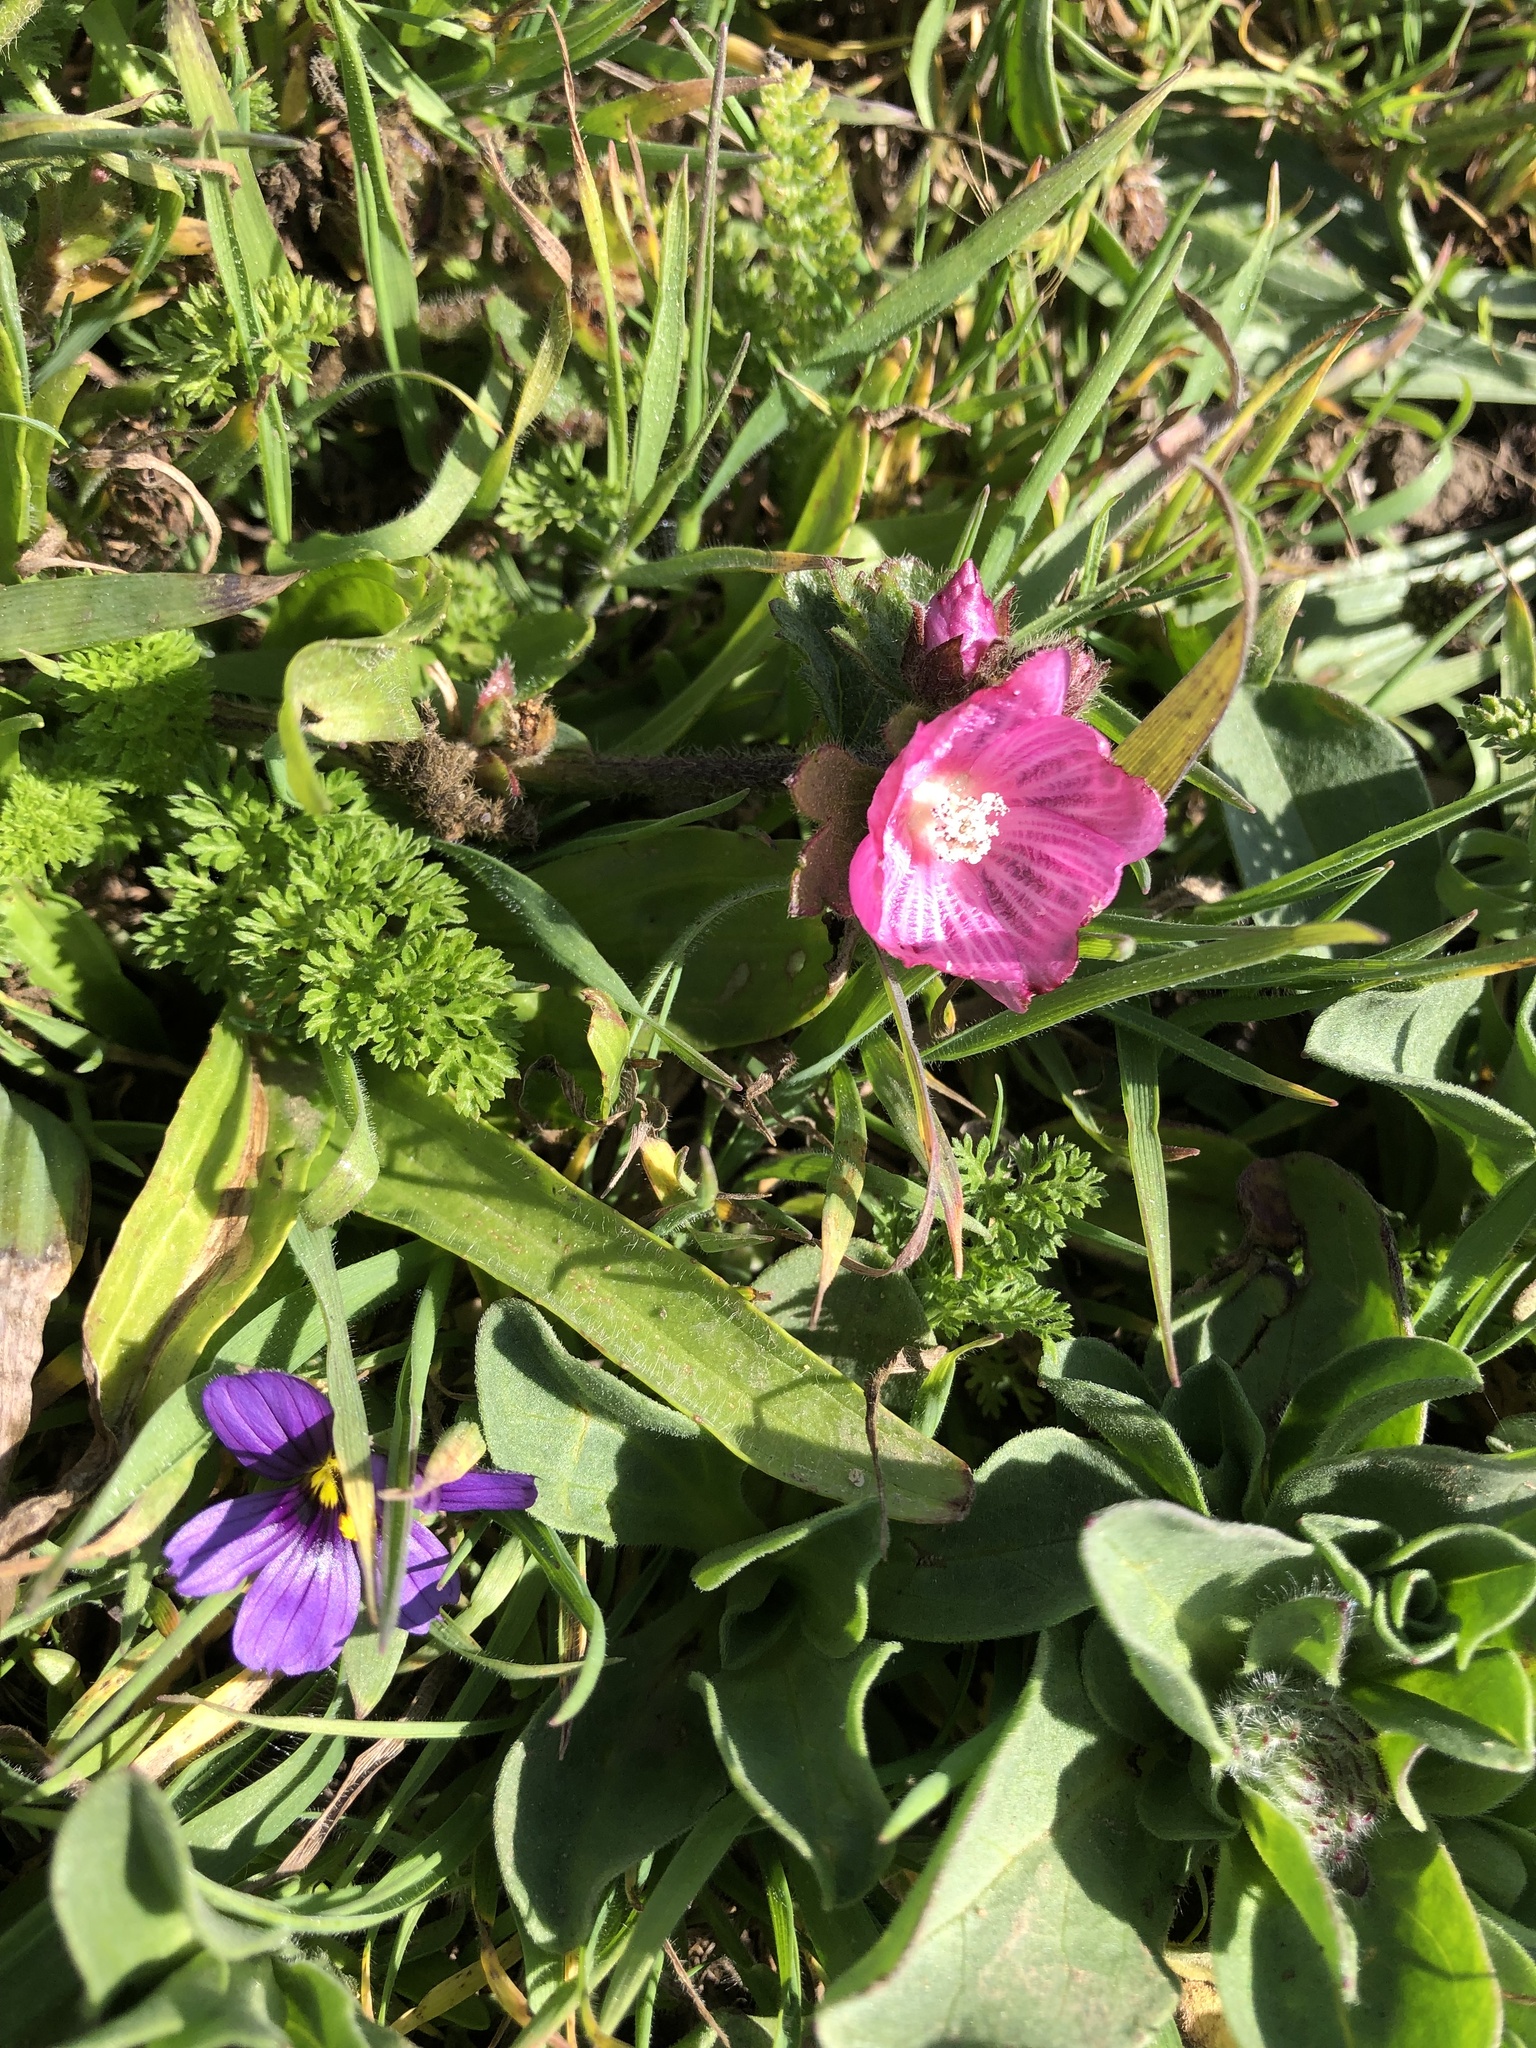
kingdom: Plantae
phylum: Tracheophyta
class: Magnoliopsida
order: Caryophyllales
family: Montiaceae
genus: Calandrinia
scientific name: Calandrinia menziesii
